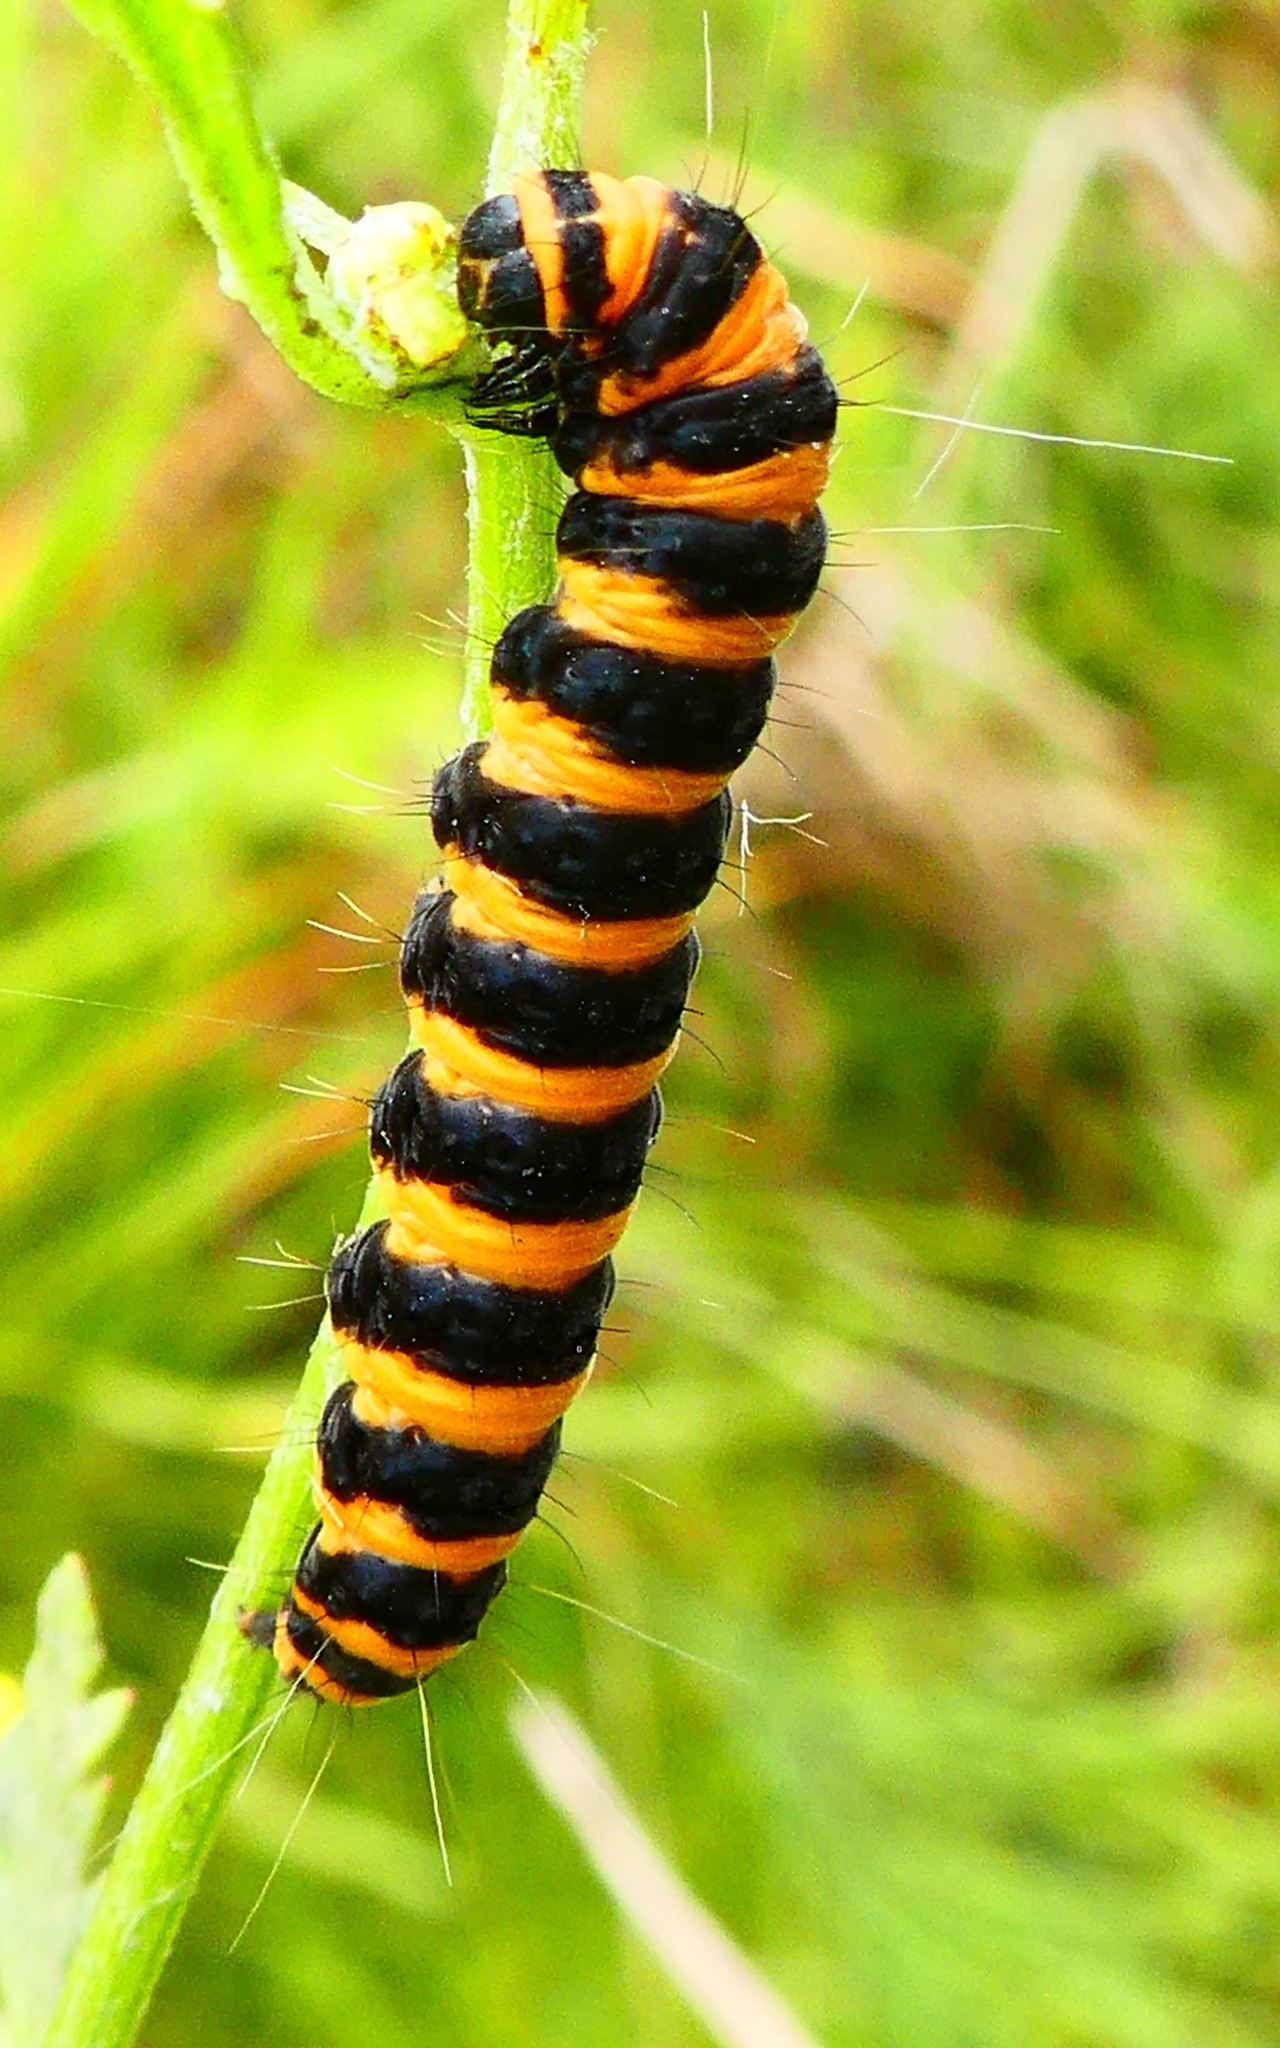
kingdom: Animalia
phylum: Arthropoda
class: Insecta
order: Lepidoptera
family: Erebidae
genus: Tyria
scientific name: Tyria jacobaeae
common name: Cinnabar
